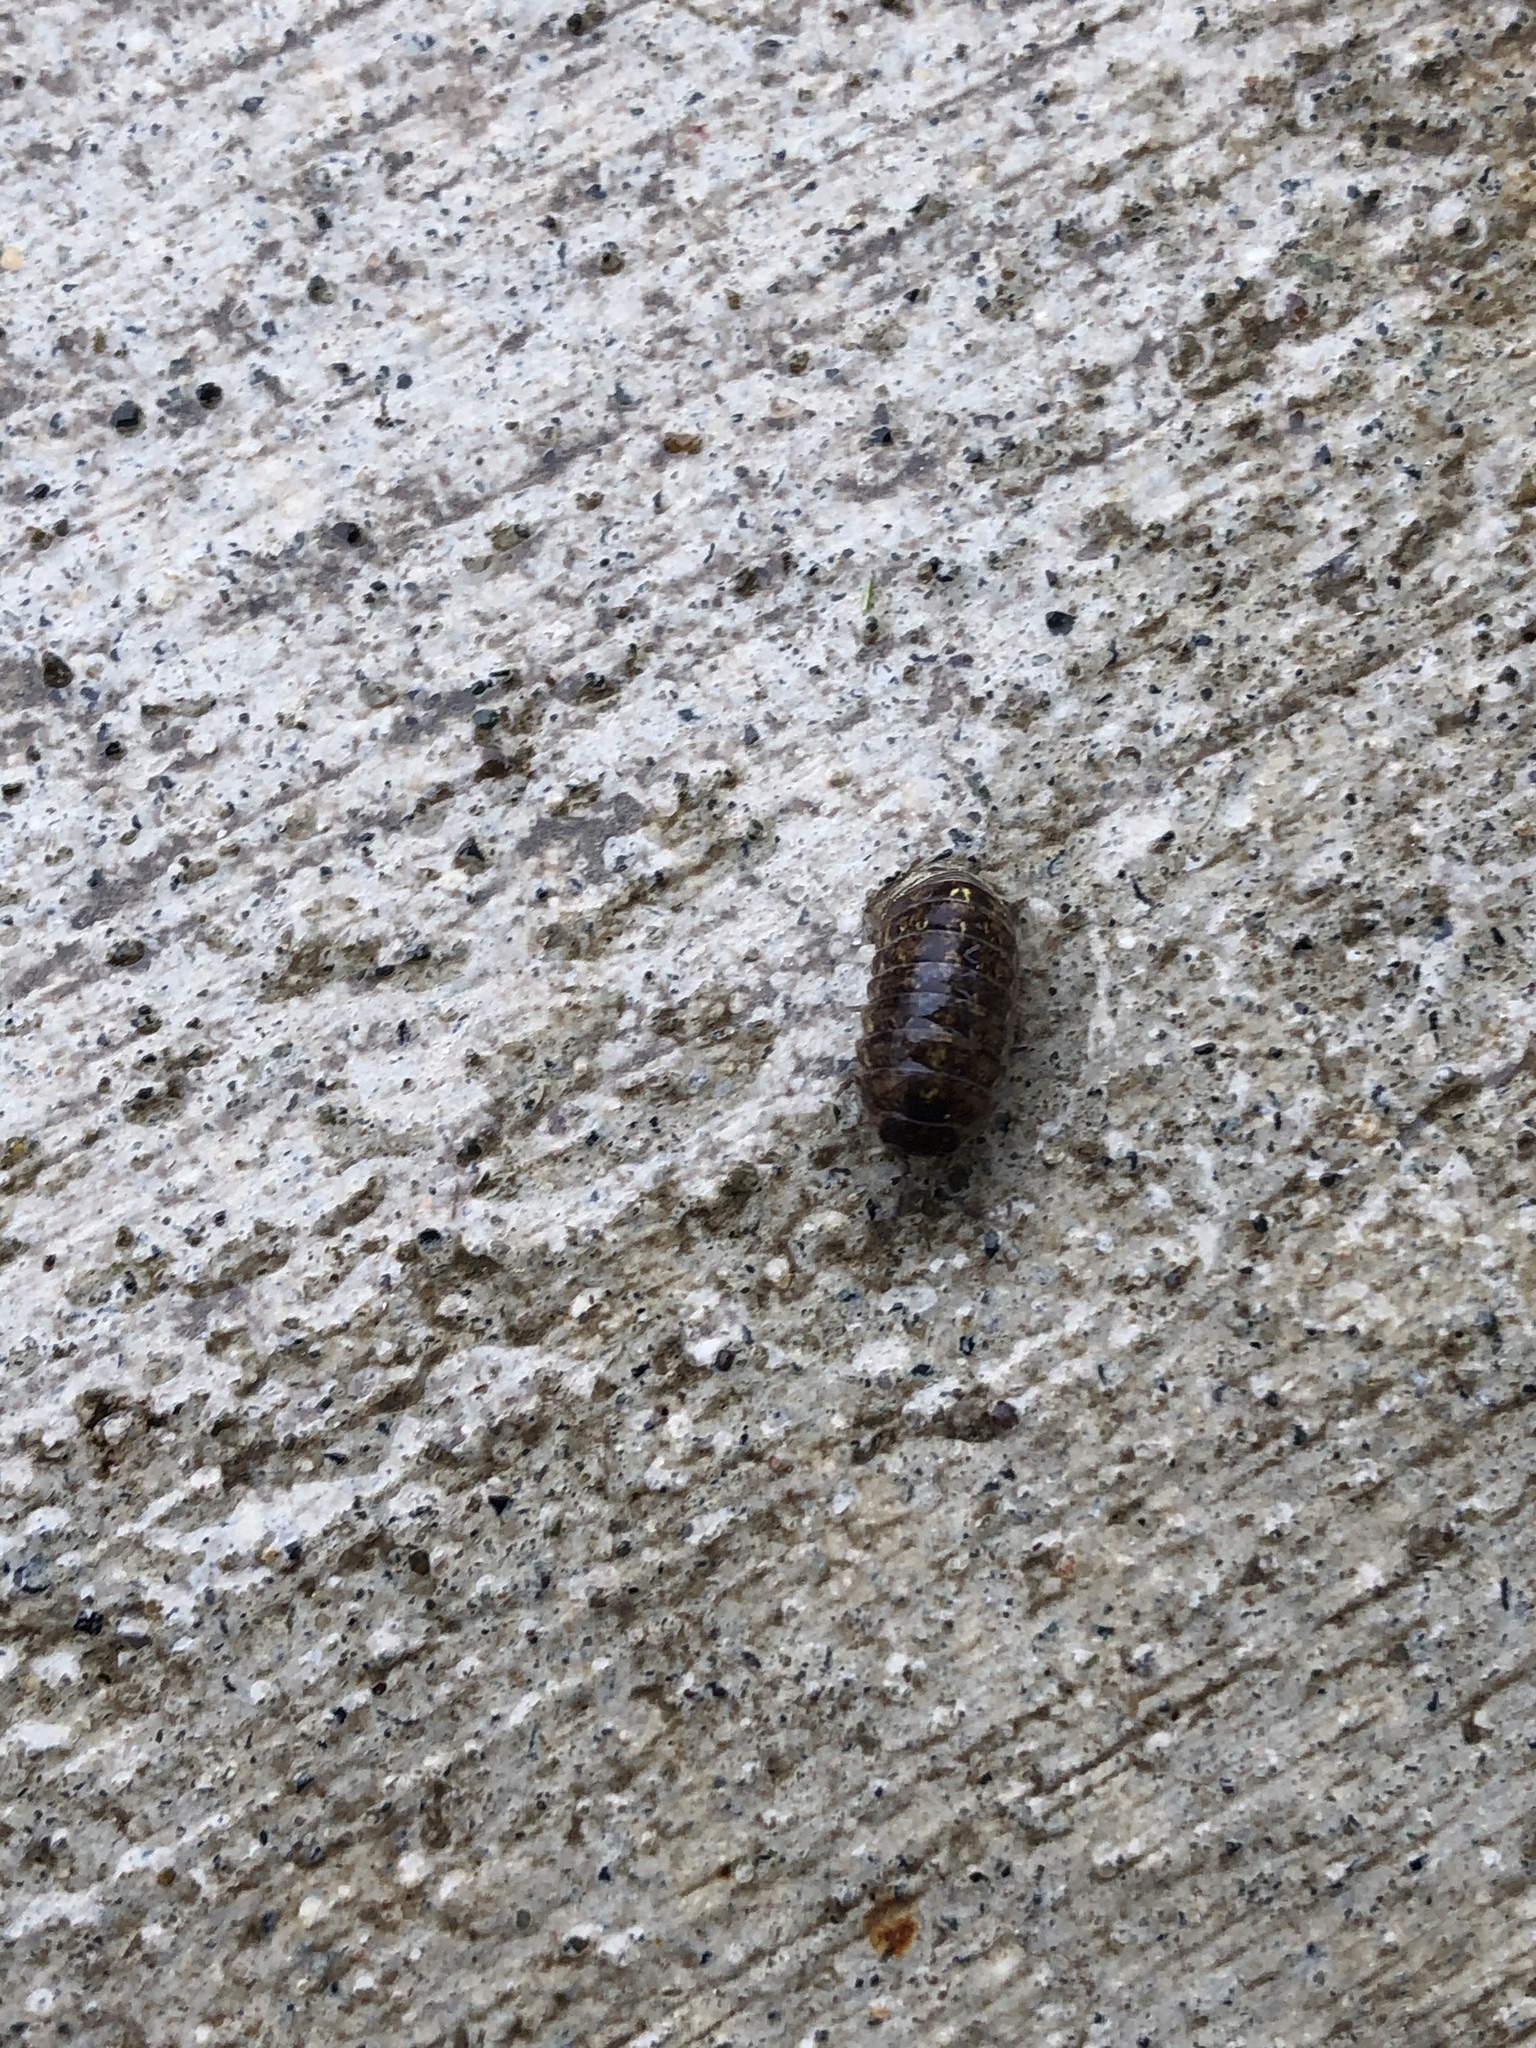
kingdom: Animalia
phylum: Arthropoda
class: Malacostraca
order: Isopoda
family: Armadillidiidae
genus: Armadillidium
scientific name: Armadillidium vulgare
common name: Common pill woodlouse
